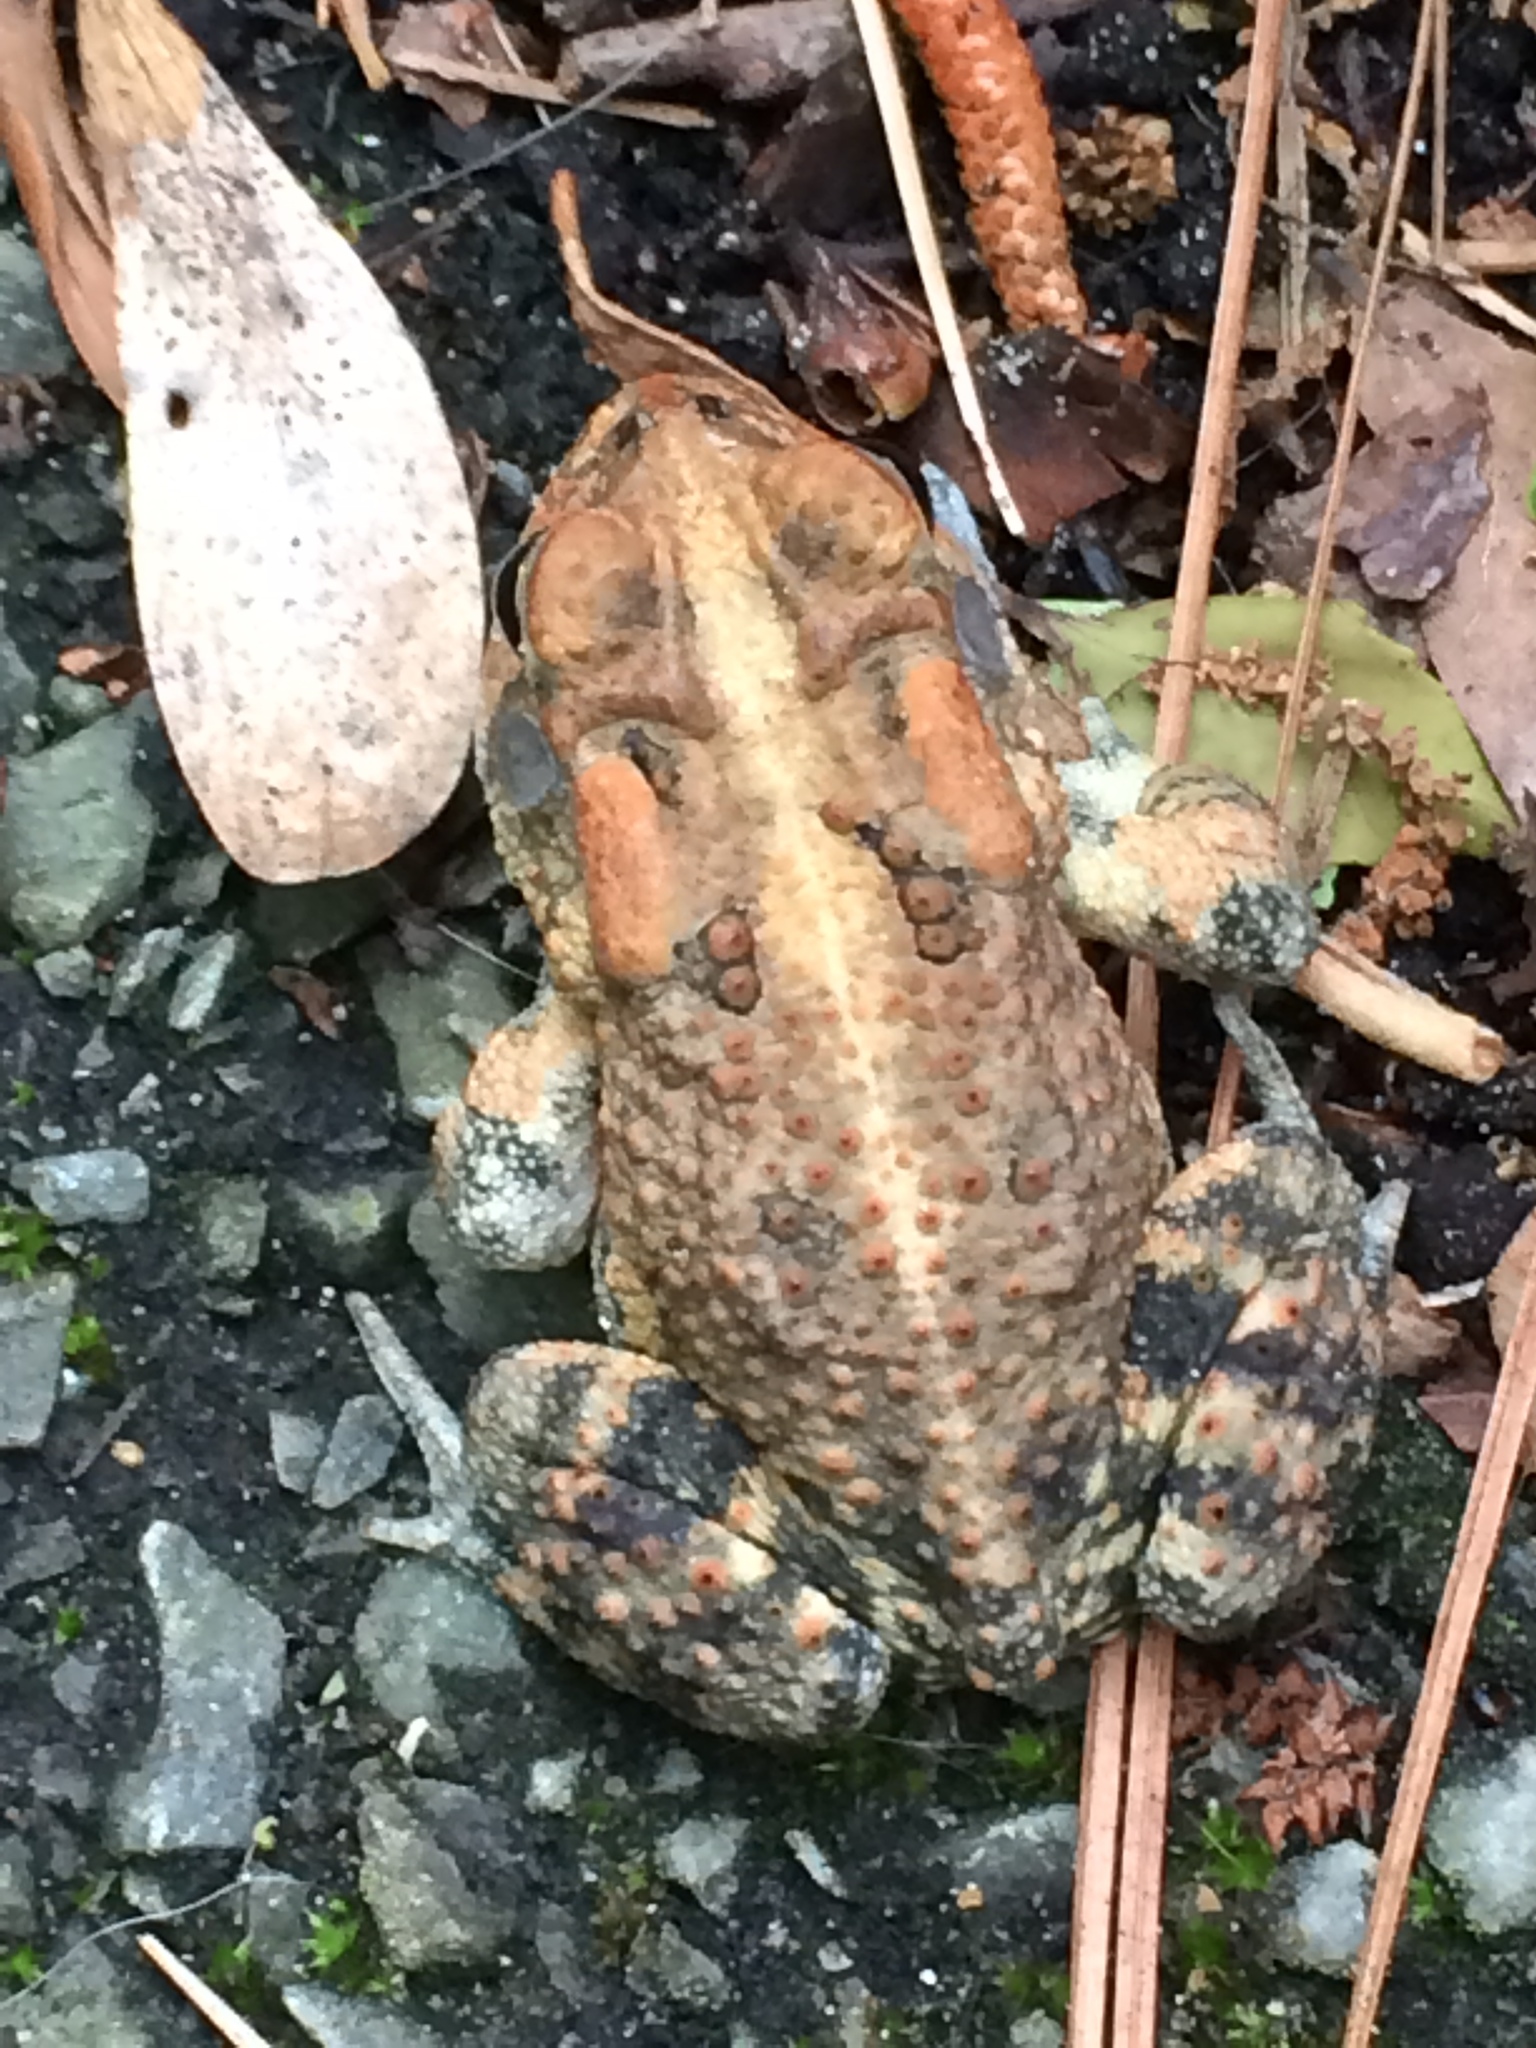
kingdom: Animalia
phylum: Chordata
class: Amphibia
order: Anura
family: Bufonidae
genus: Anaxyrus
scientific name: Anaxyrus terrestris
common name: Southern toad
